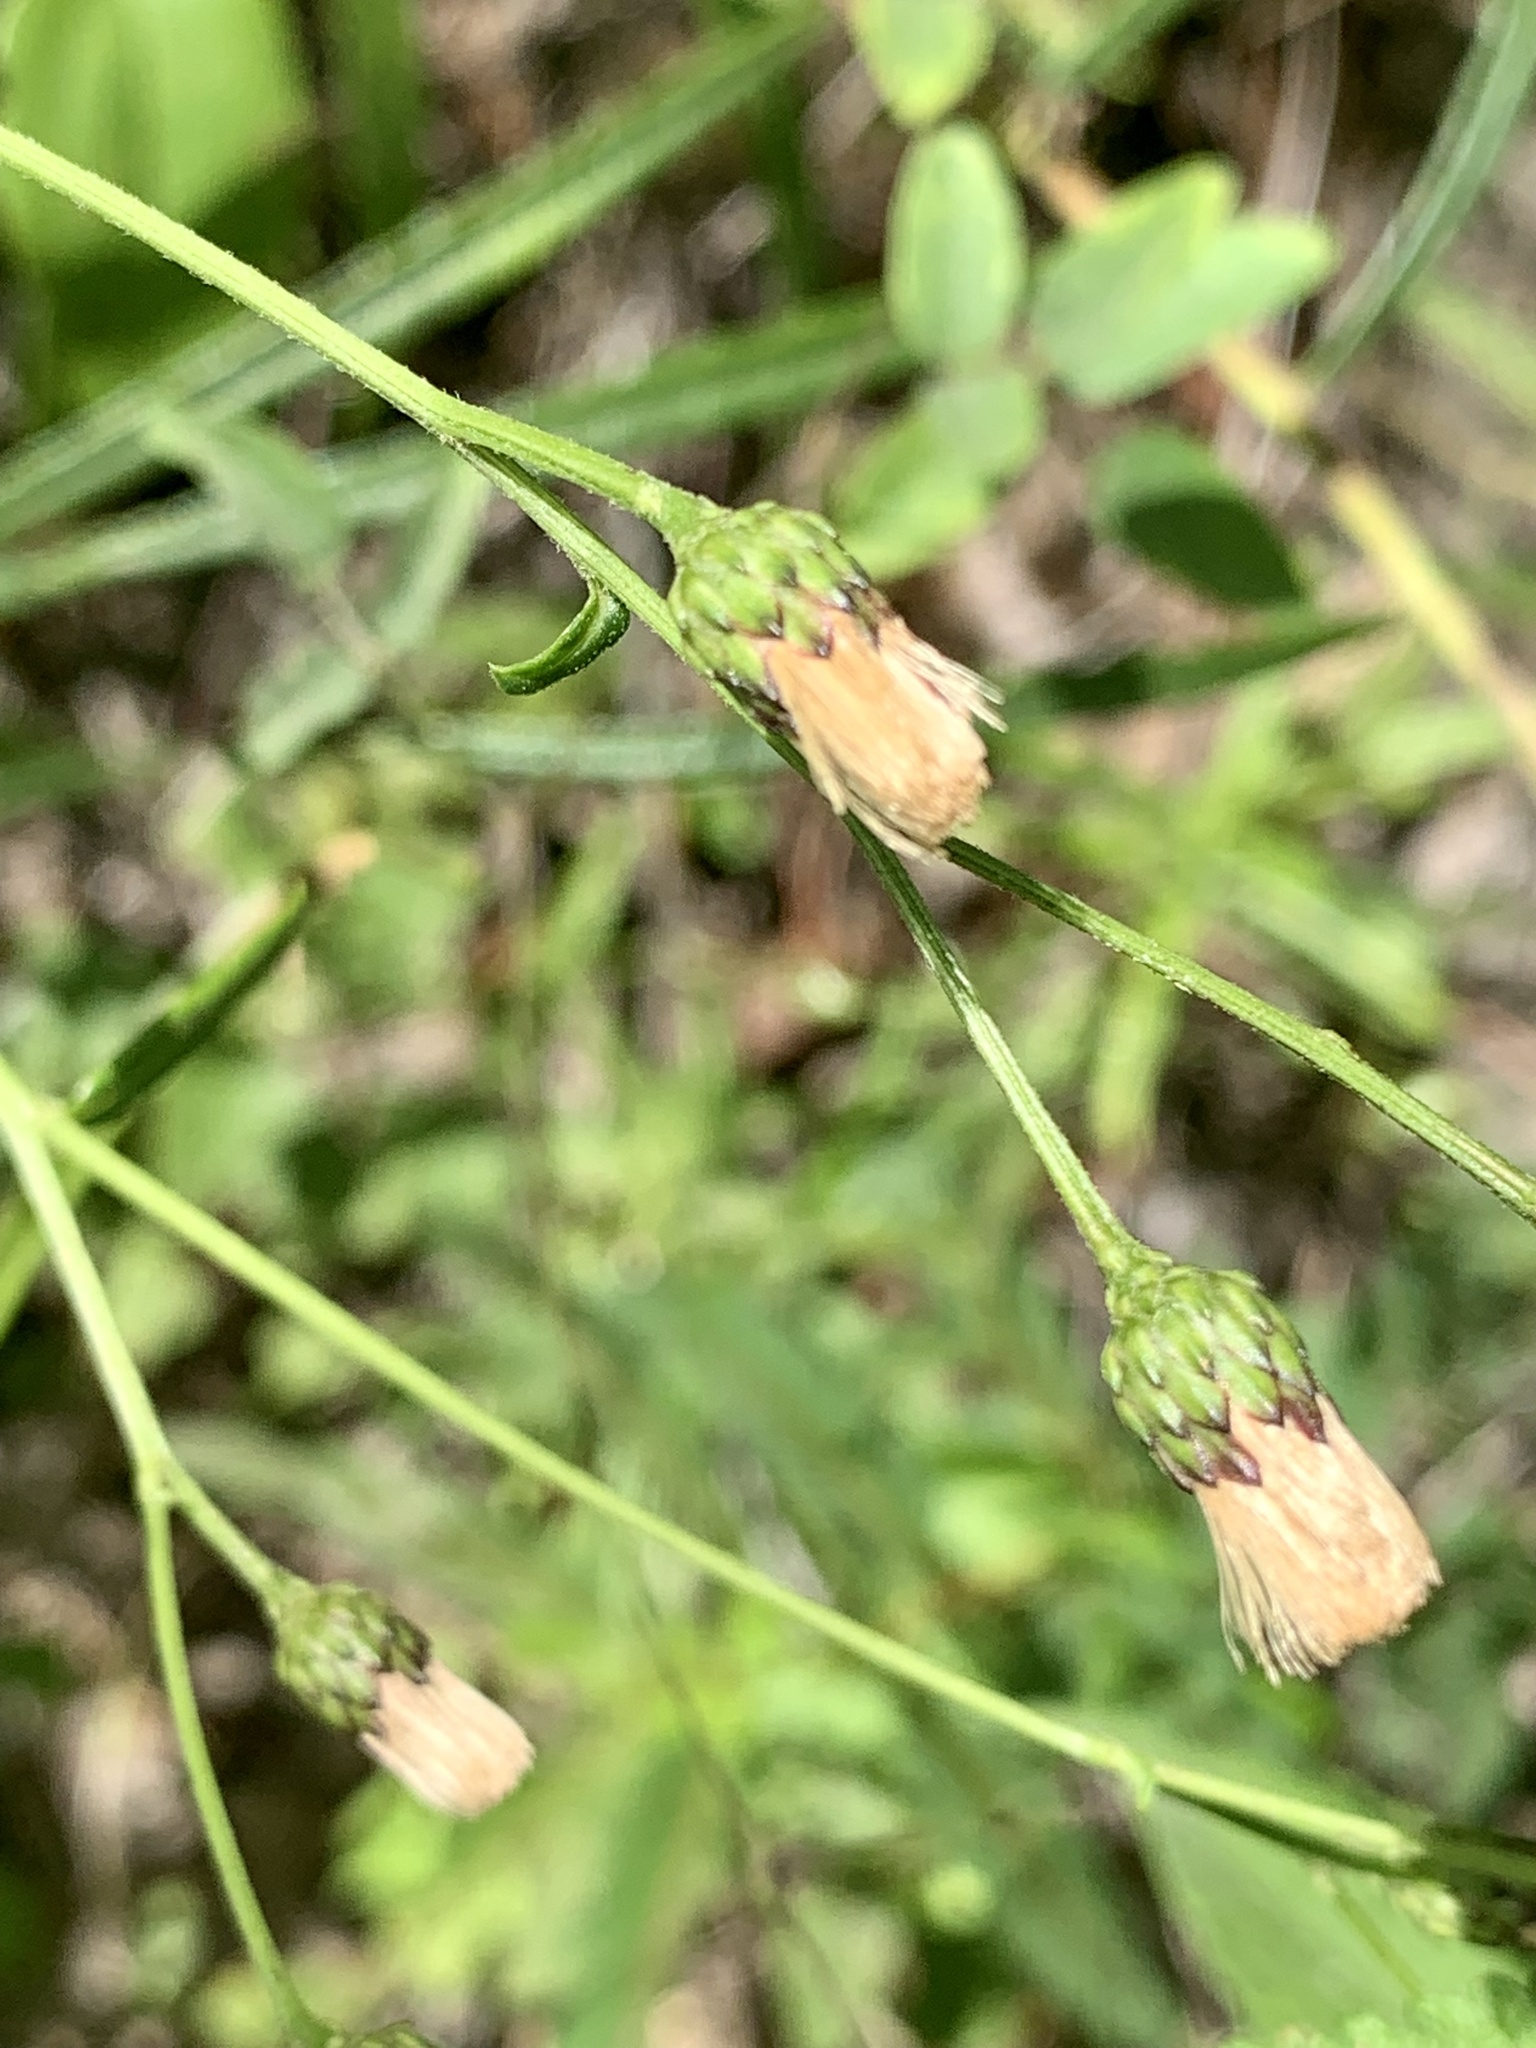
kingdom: Plantae
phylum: Tracheophyta
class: Magnoliopsida
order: Asterales
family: Asteraceae
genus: Vernonia
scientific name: Vernonia texana
